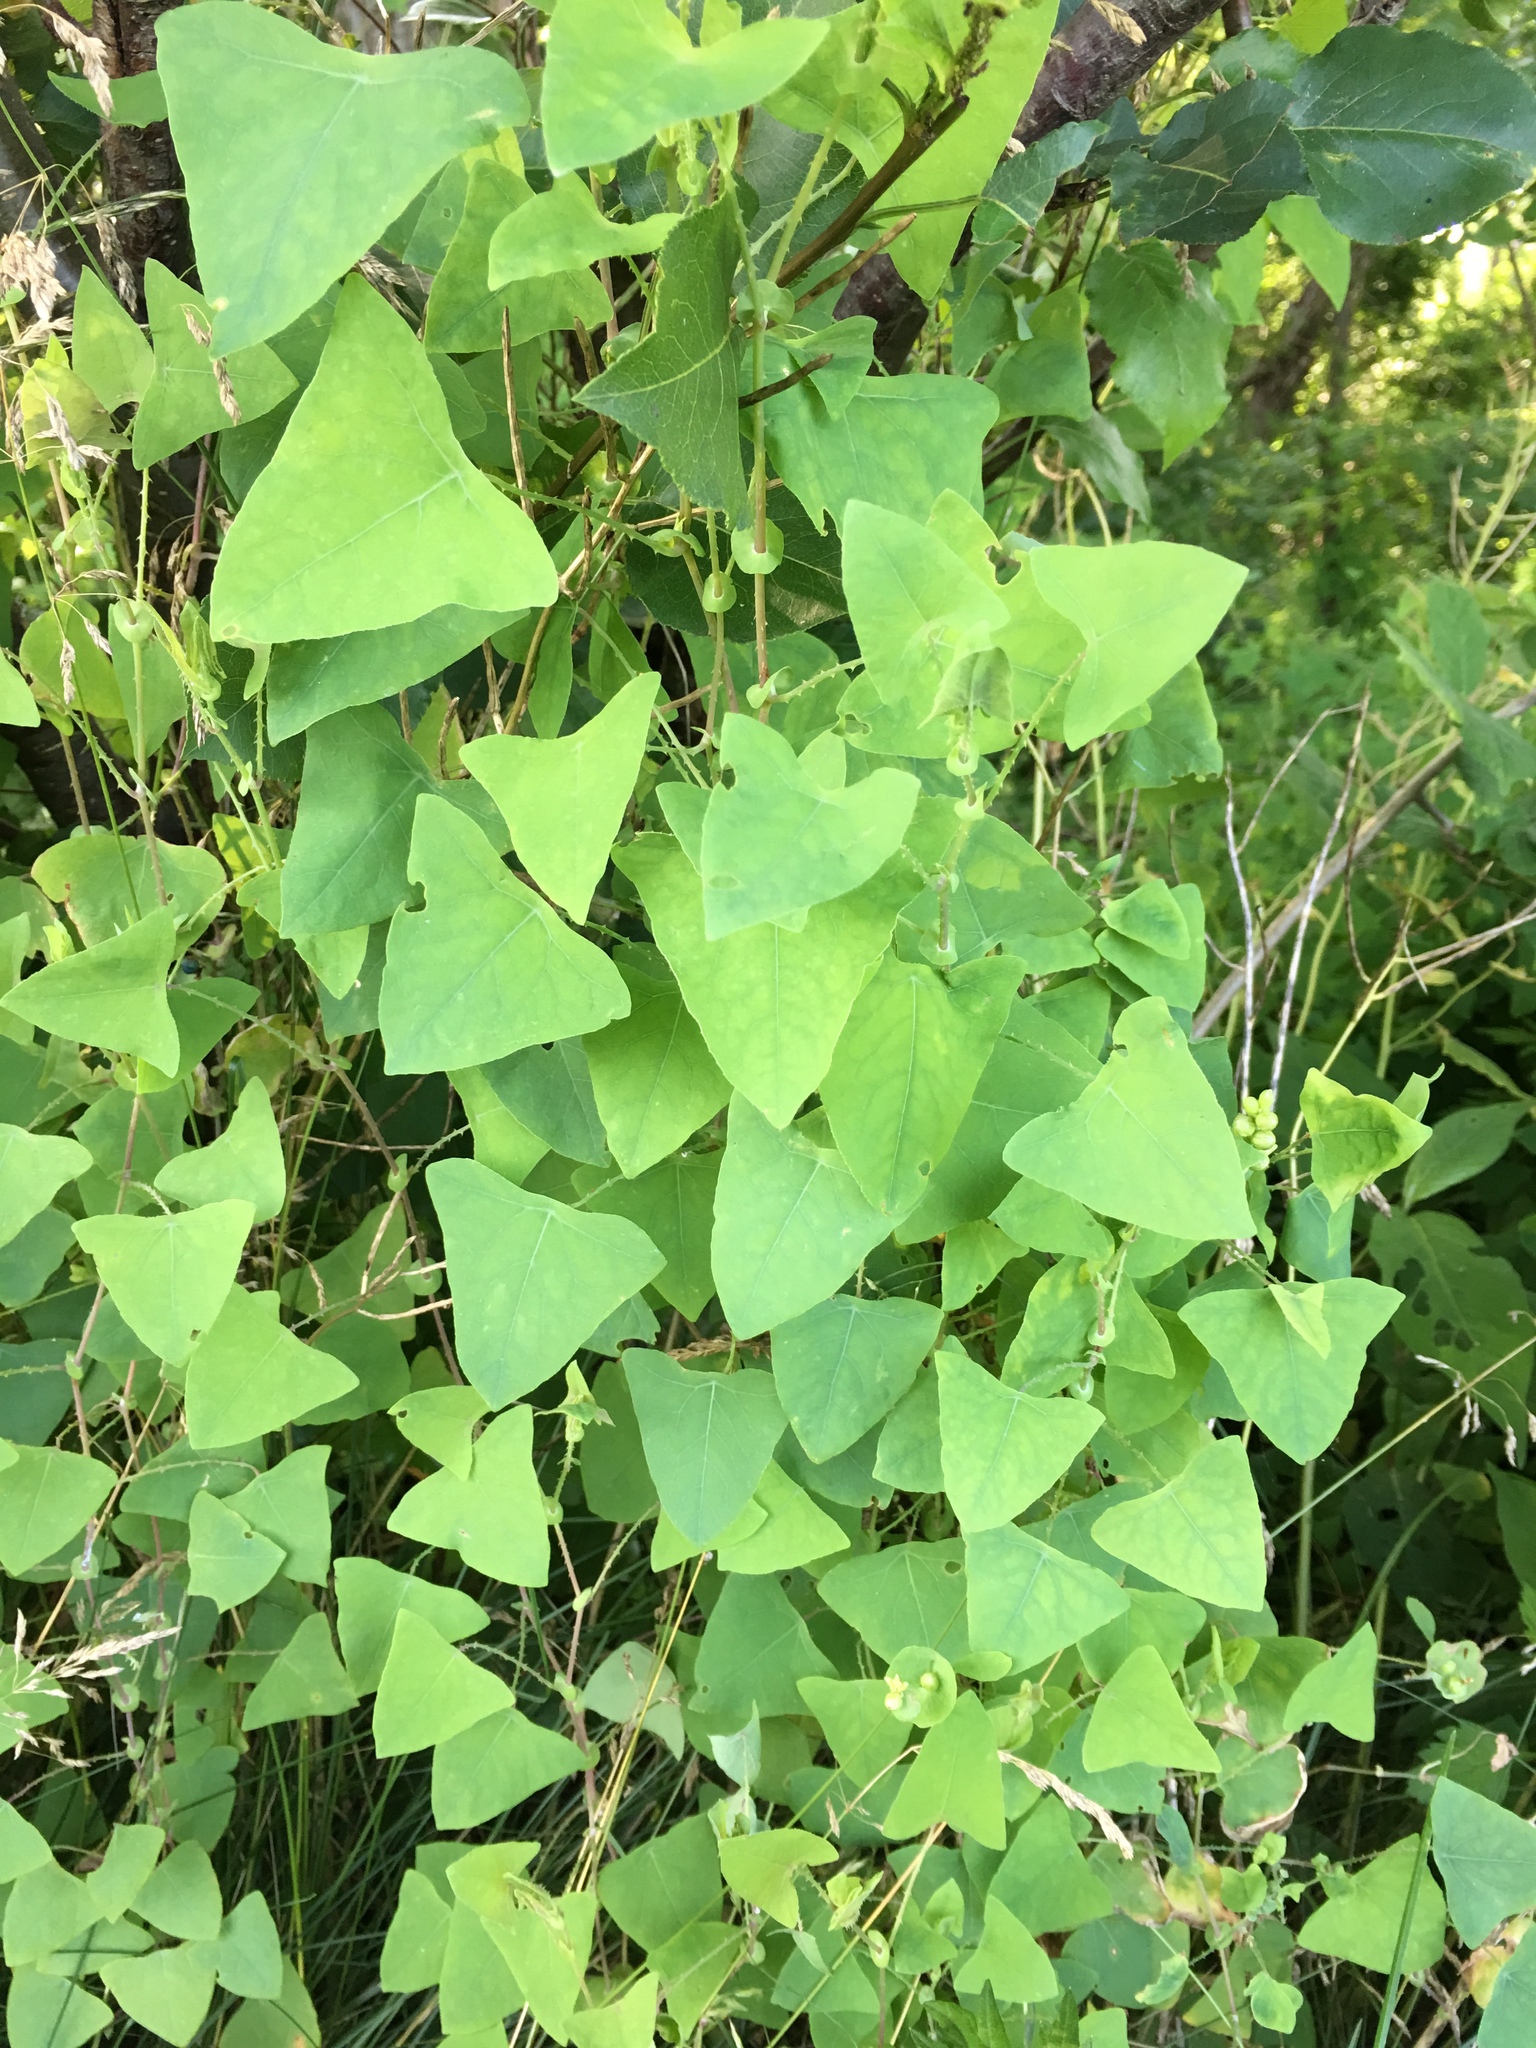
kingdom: Plantae
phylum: Tracheophyta
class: Magnoliopsida
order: Caryophyllales
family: Polygonaceae
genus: Persicaria
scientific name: Persicaria perfoliata
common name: Asiatic tearthumb
